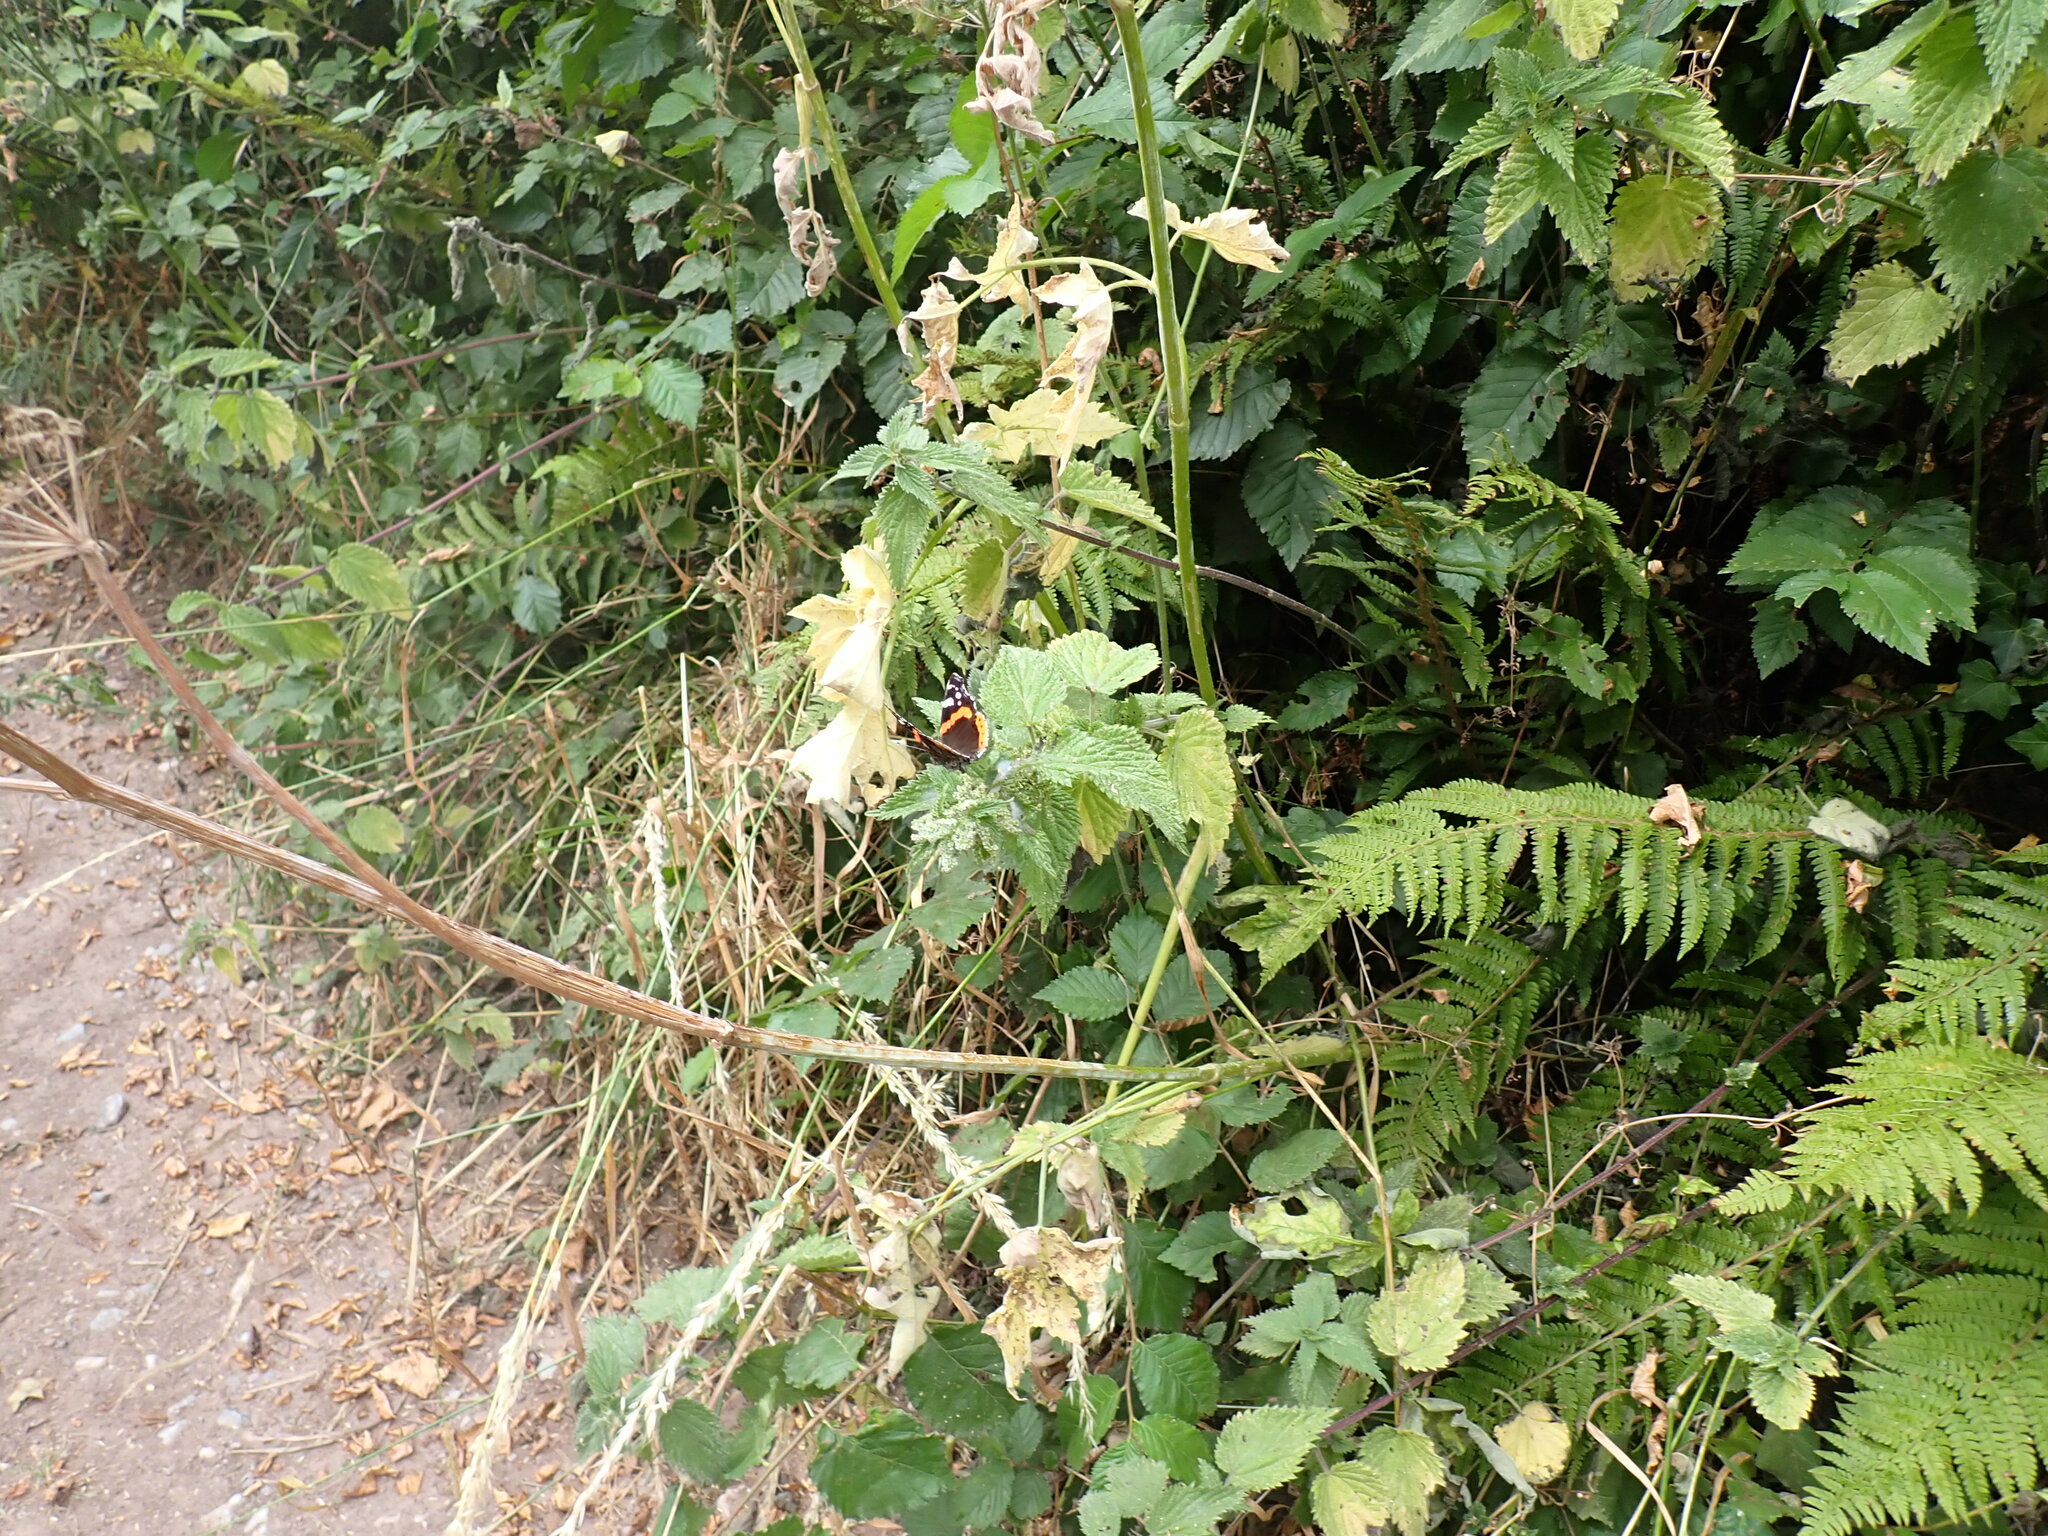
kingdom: Animalia
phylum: Arthropoda
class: Insecta
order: Lepidoptera
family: Nymphalidae
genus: Vanessa
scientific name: Vanessa atalanta
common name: Red admiral
